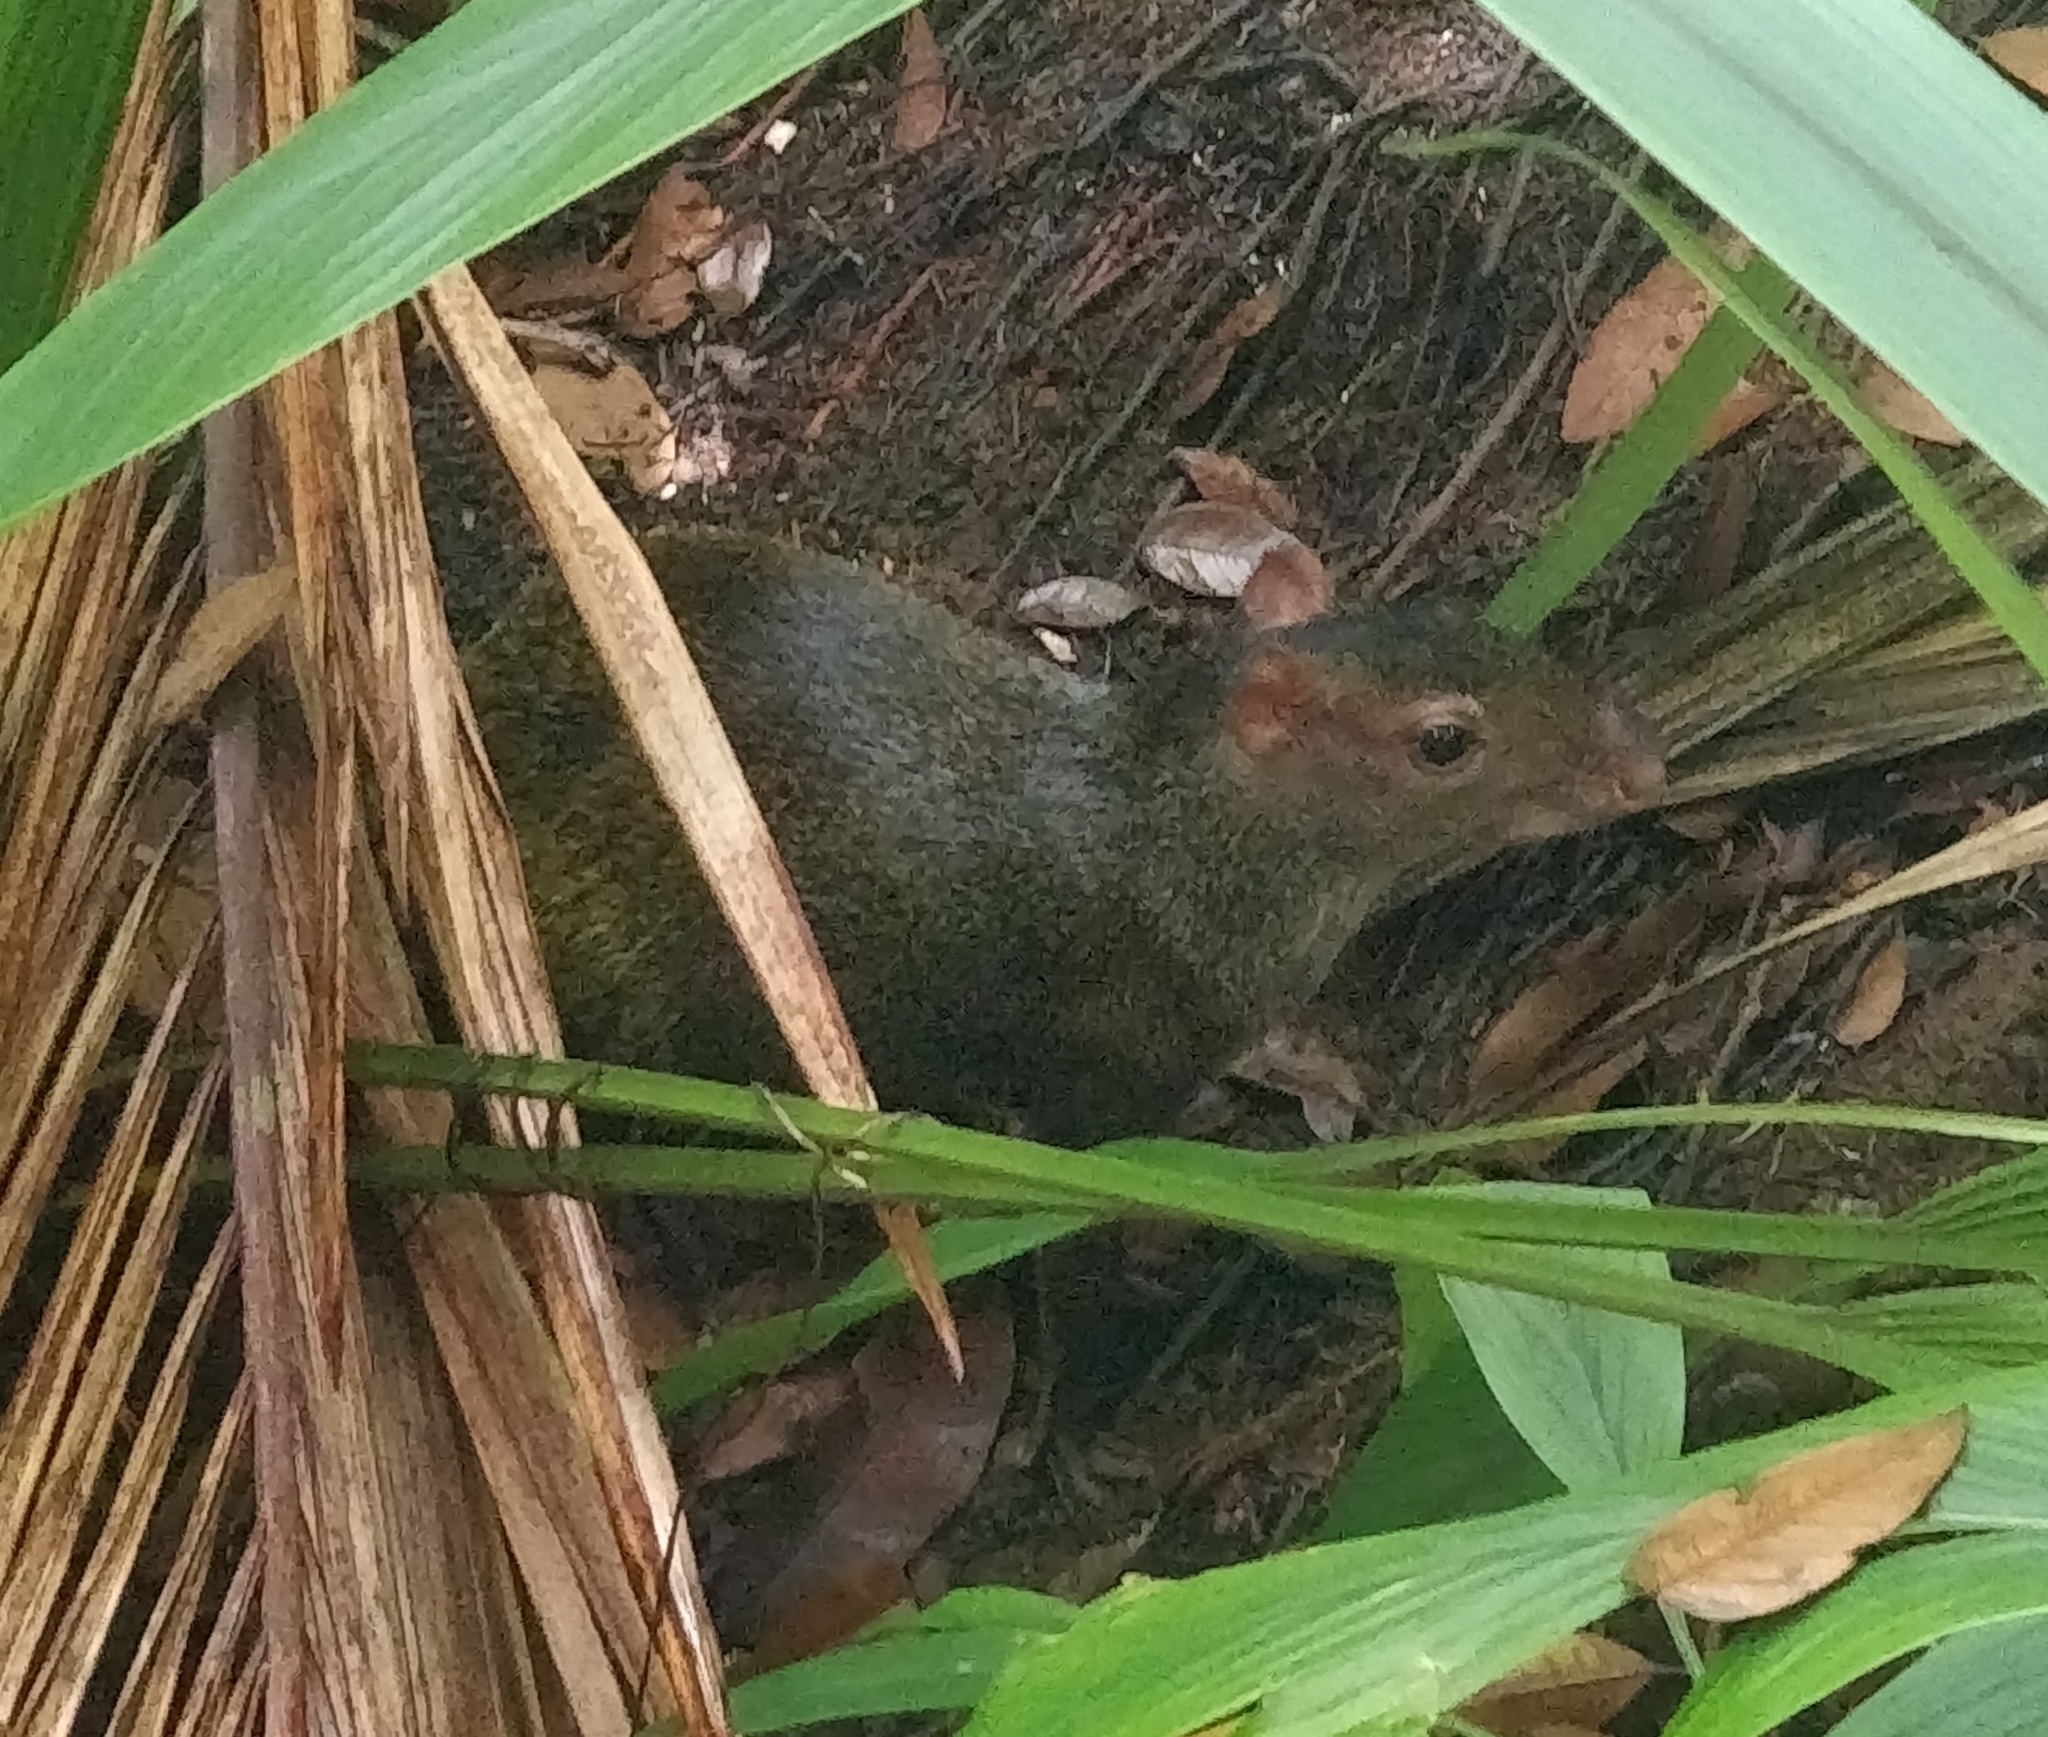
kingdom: Animalia
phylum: Chordata
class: Mammalia
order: Rodentia
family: Dasyproctidae
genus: Dasyprocta
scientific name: Dasyprocta punctata
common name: Central american agouti
